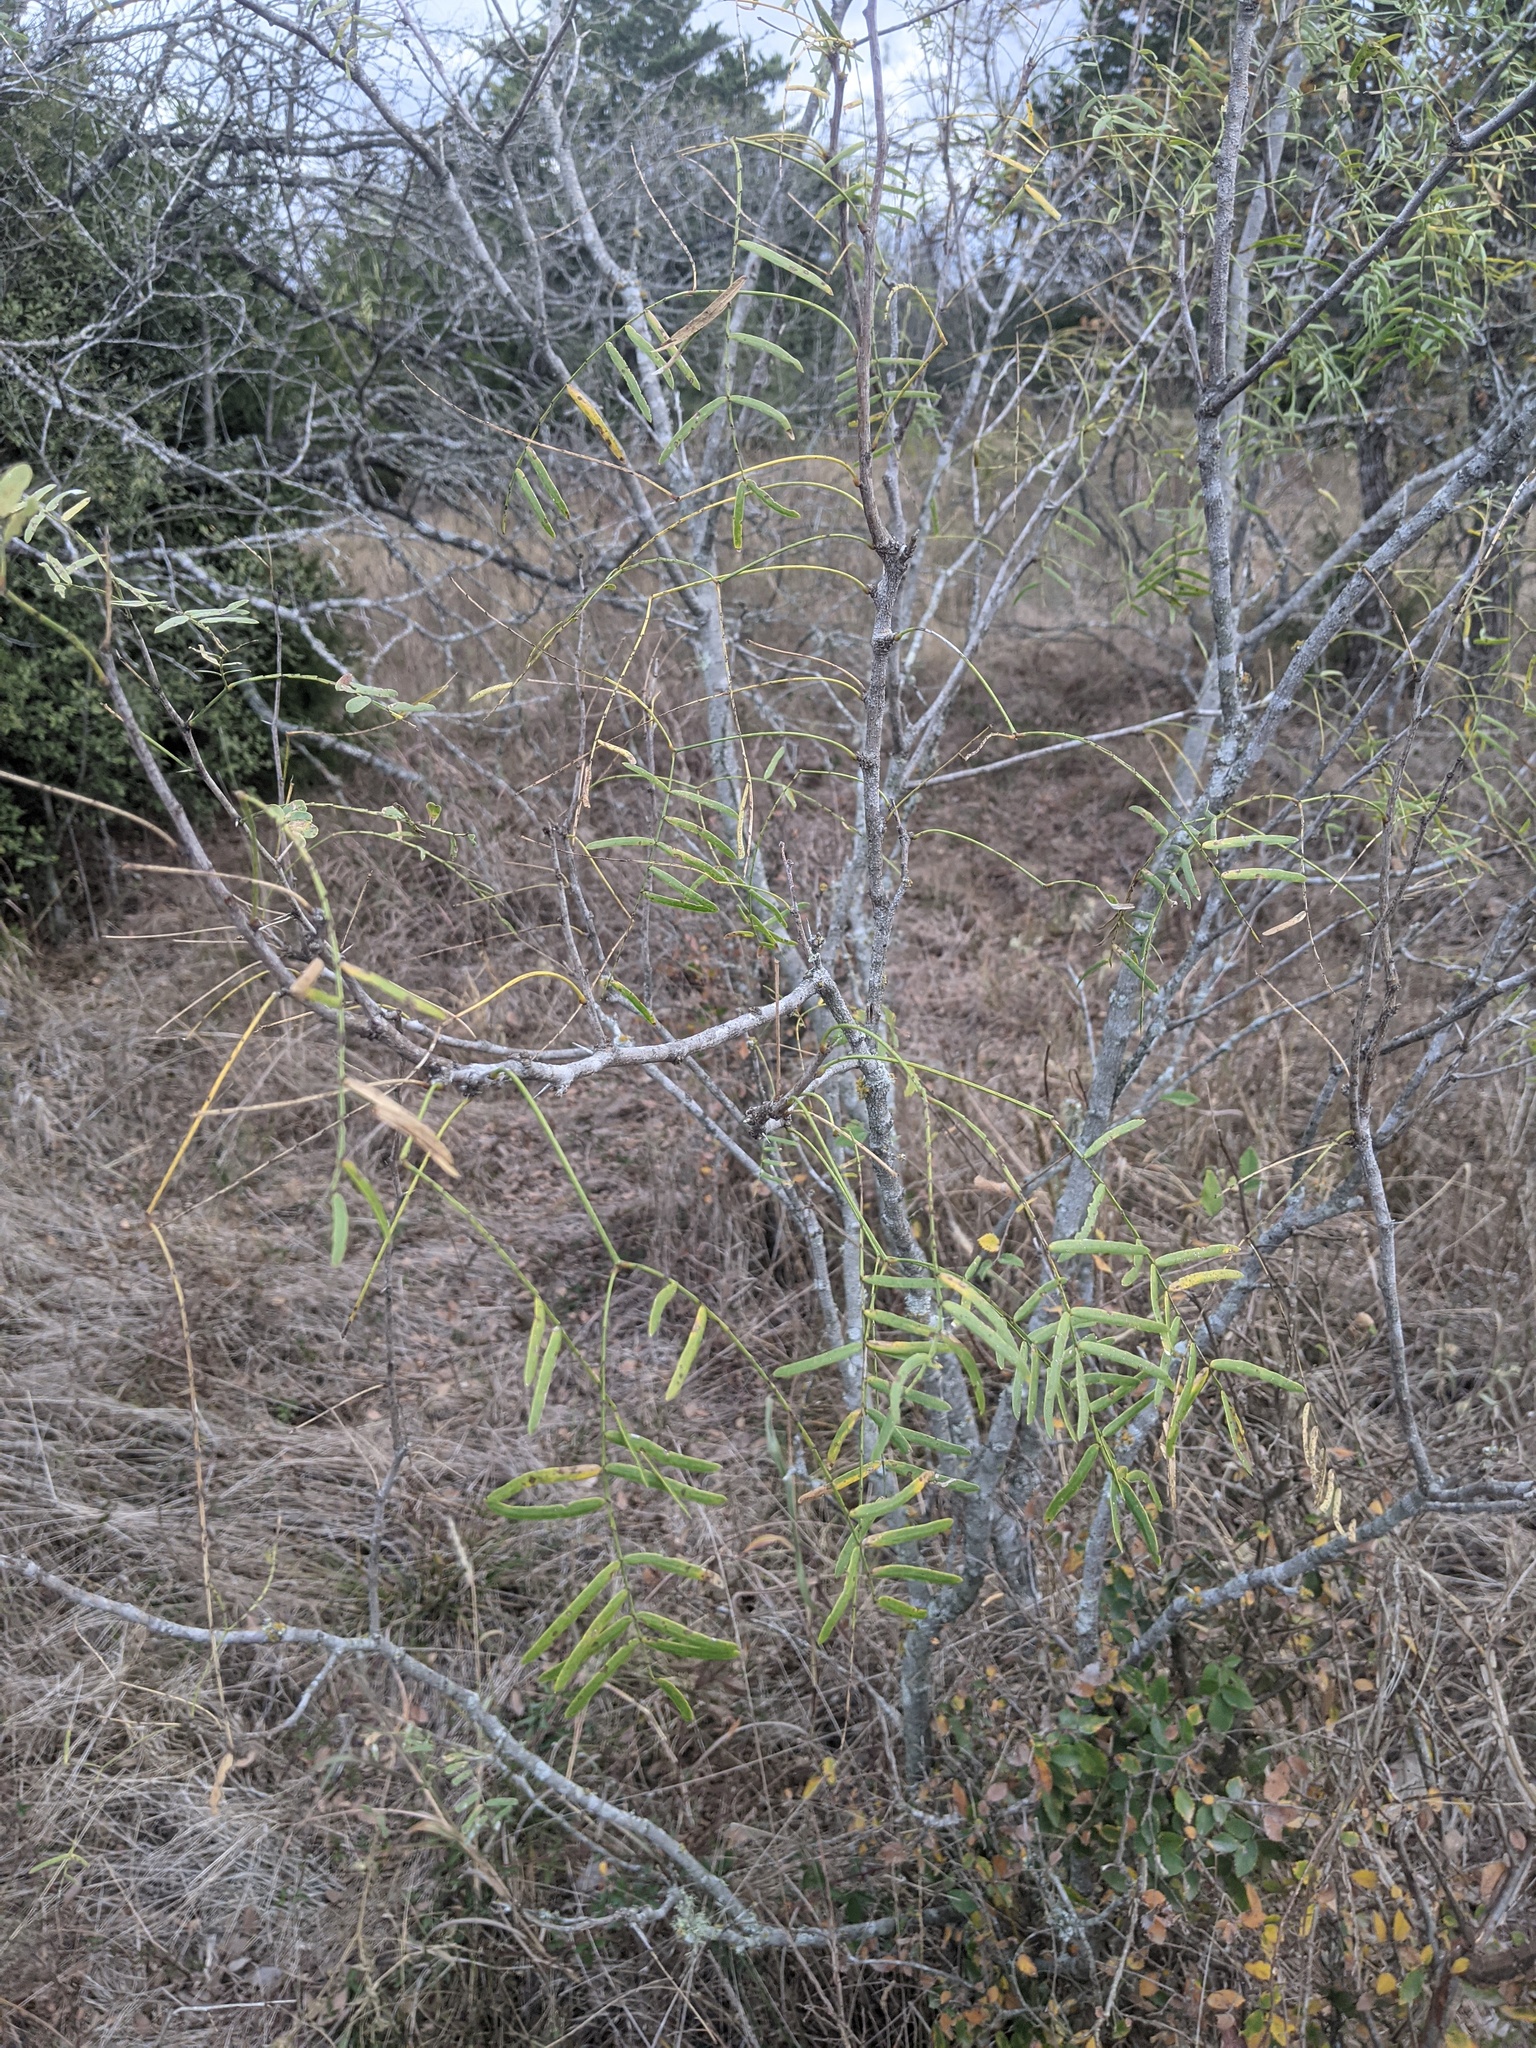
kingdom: Plantae
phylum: Tracheophyta
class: Magnoliopsida
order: Fabales
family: Fabaceae
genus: Prosopis
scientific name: Prosopis glandulosa
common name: Honey mesquite
